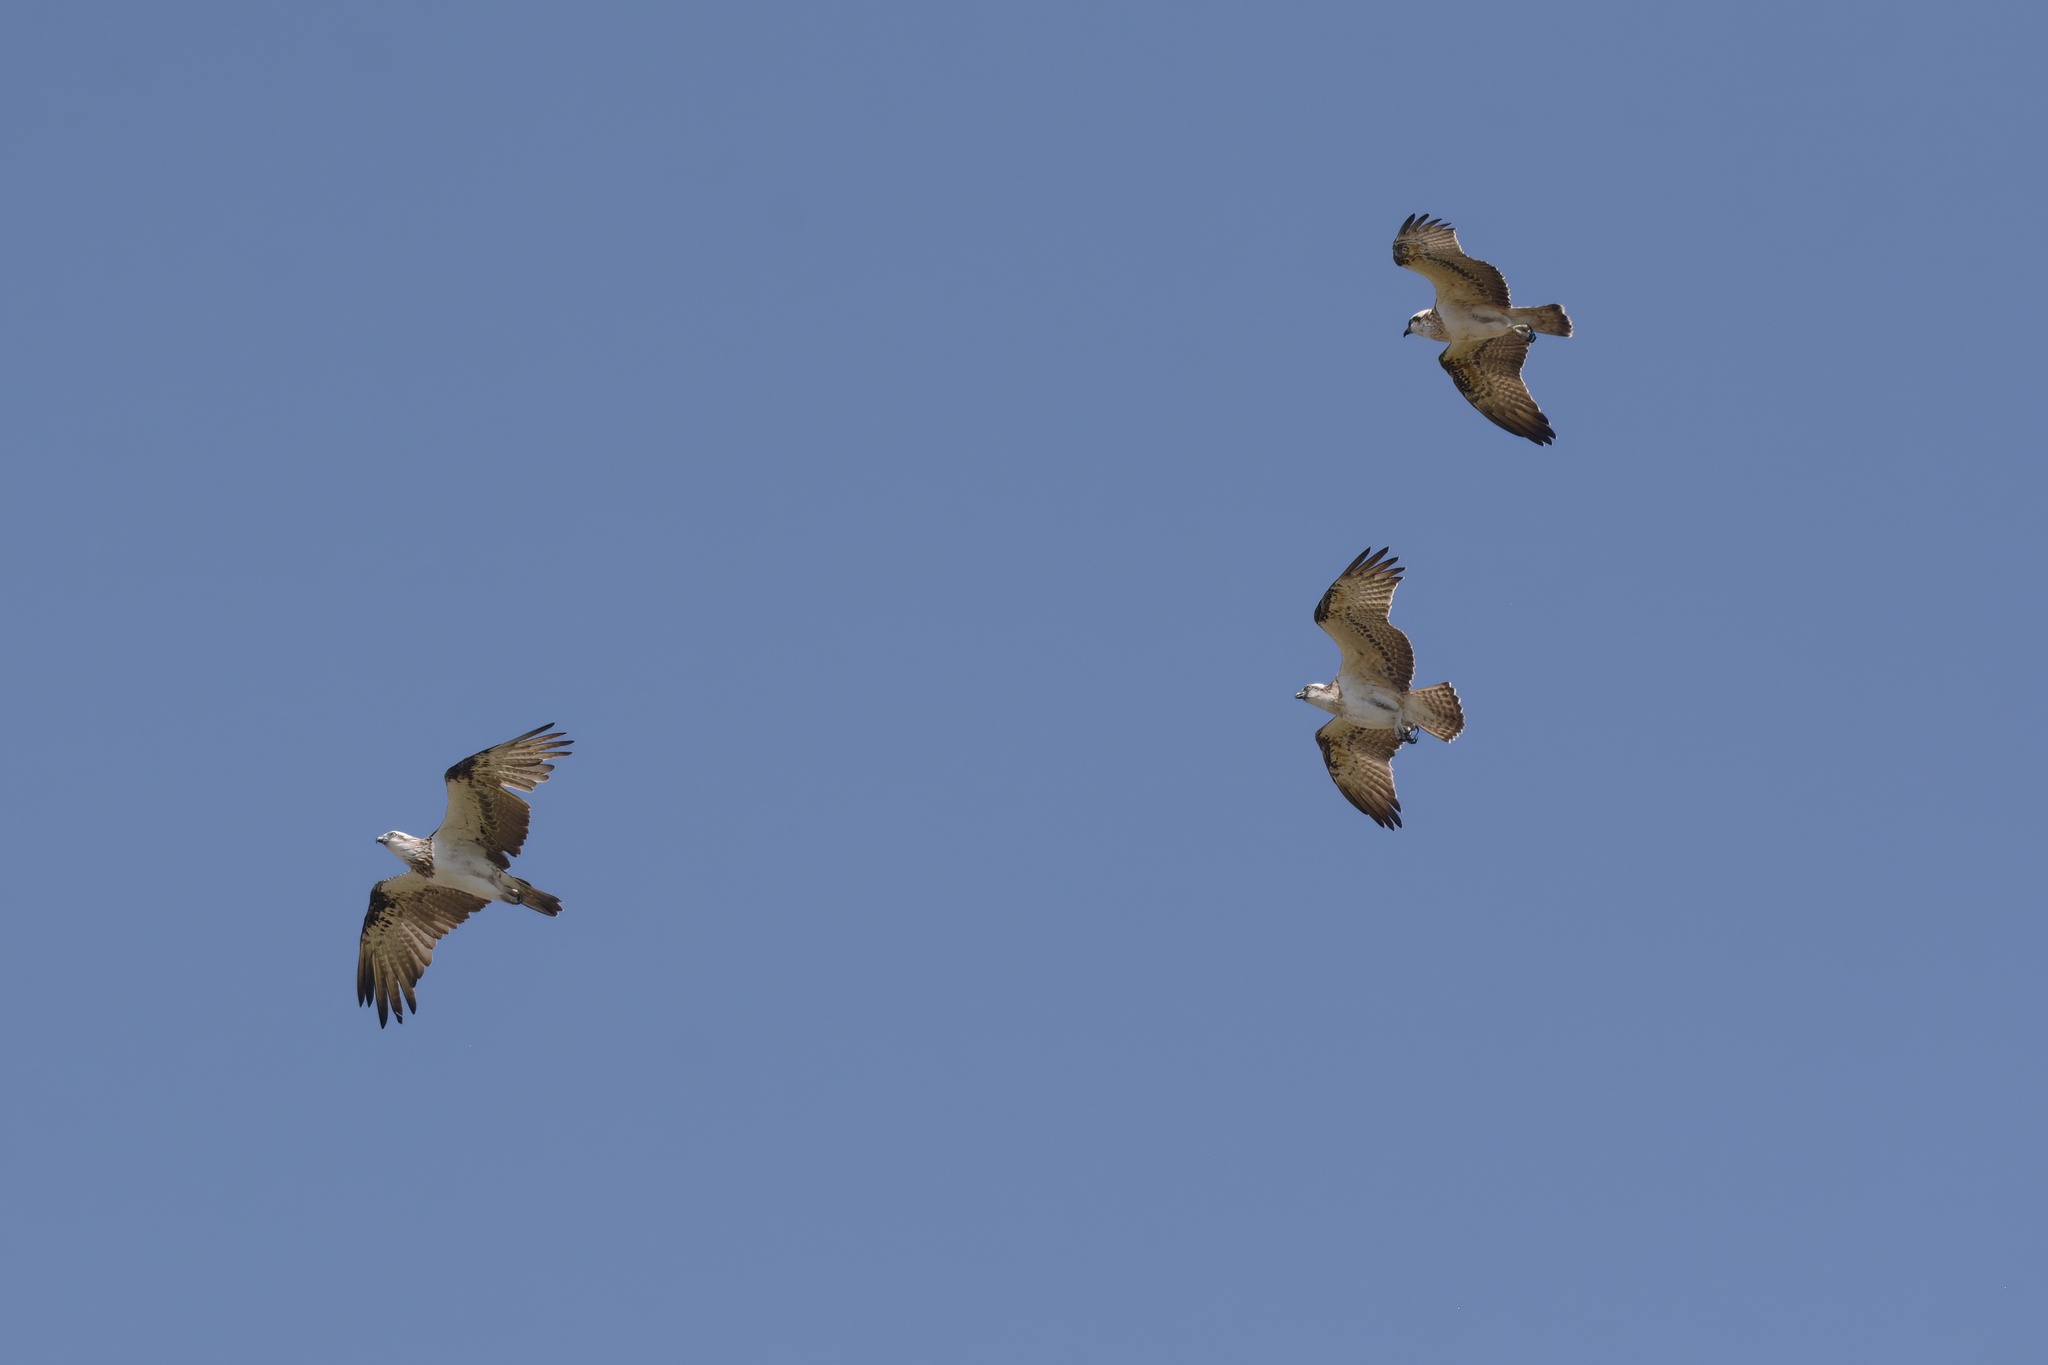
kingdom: Animalia
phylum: Chordata
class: Aves
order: Accipitriformes
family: Pandionidae
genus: Pandion
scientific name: Pandion cristatus
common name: Eastern osprey
